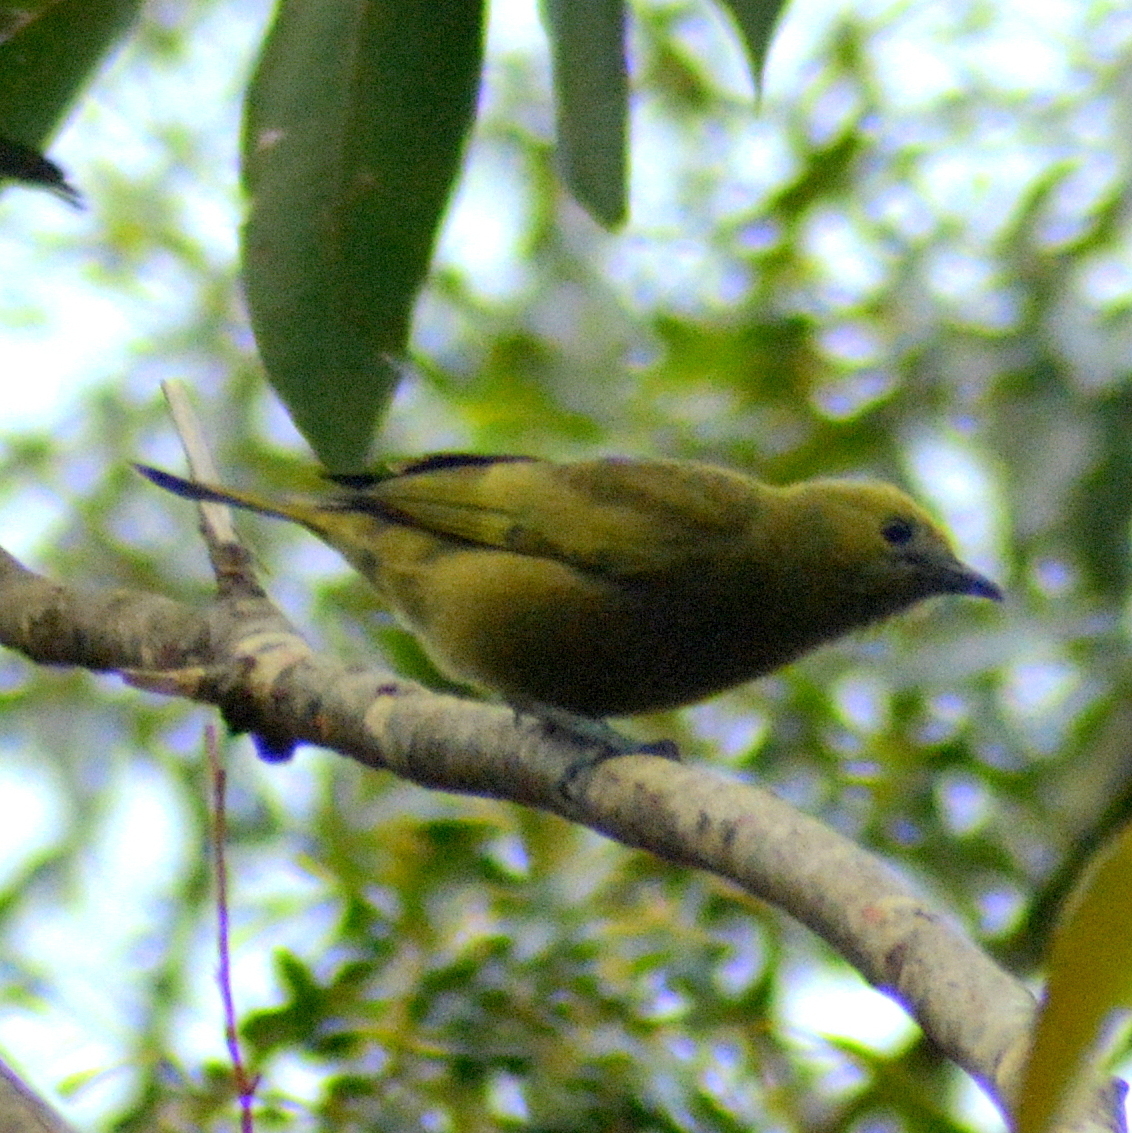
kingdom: Animalia
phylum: Chordata
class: Aves
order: Passeriformes
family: Thraupidae
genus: Thraupis
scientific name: Thraupis palmarum
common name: Palm tanager
